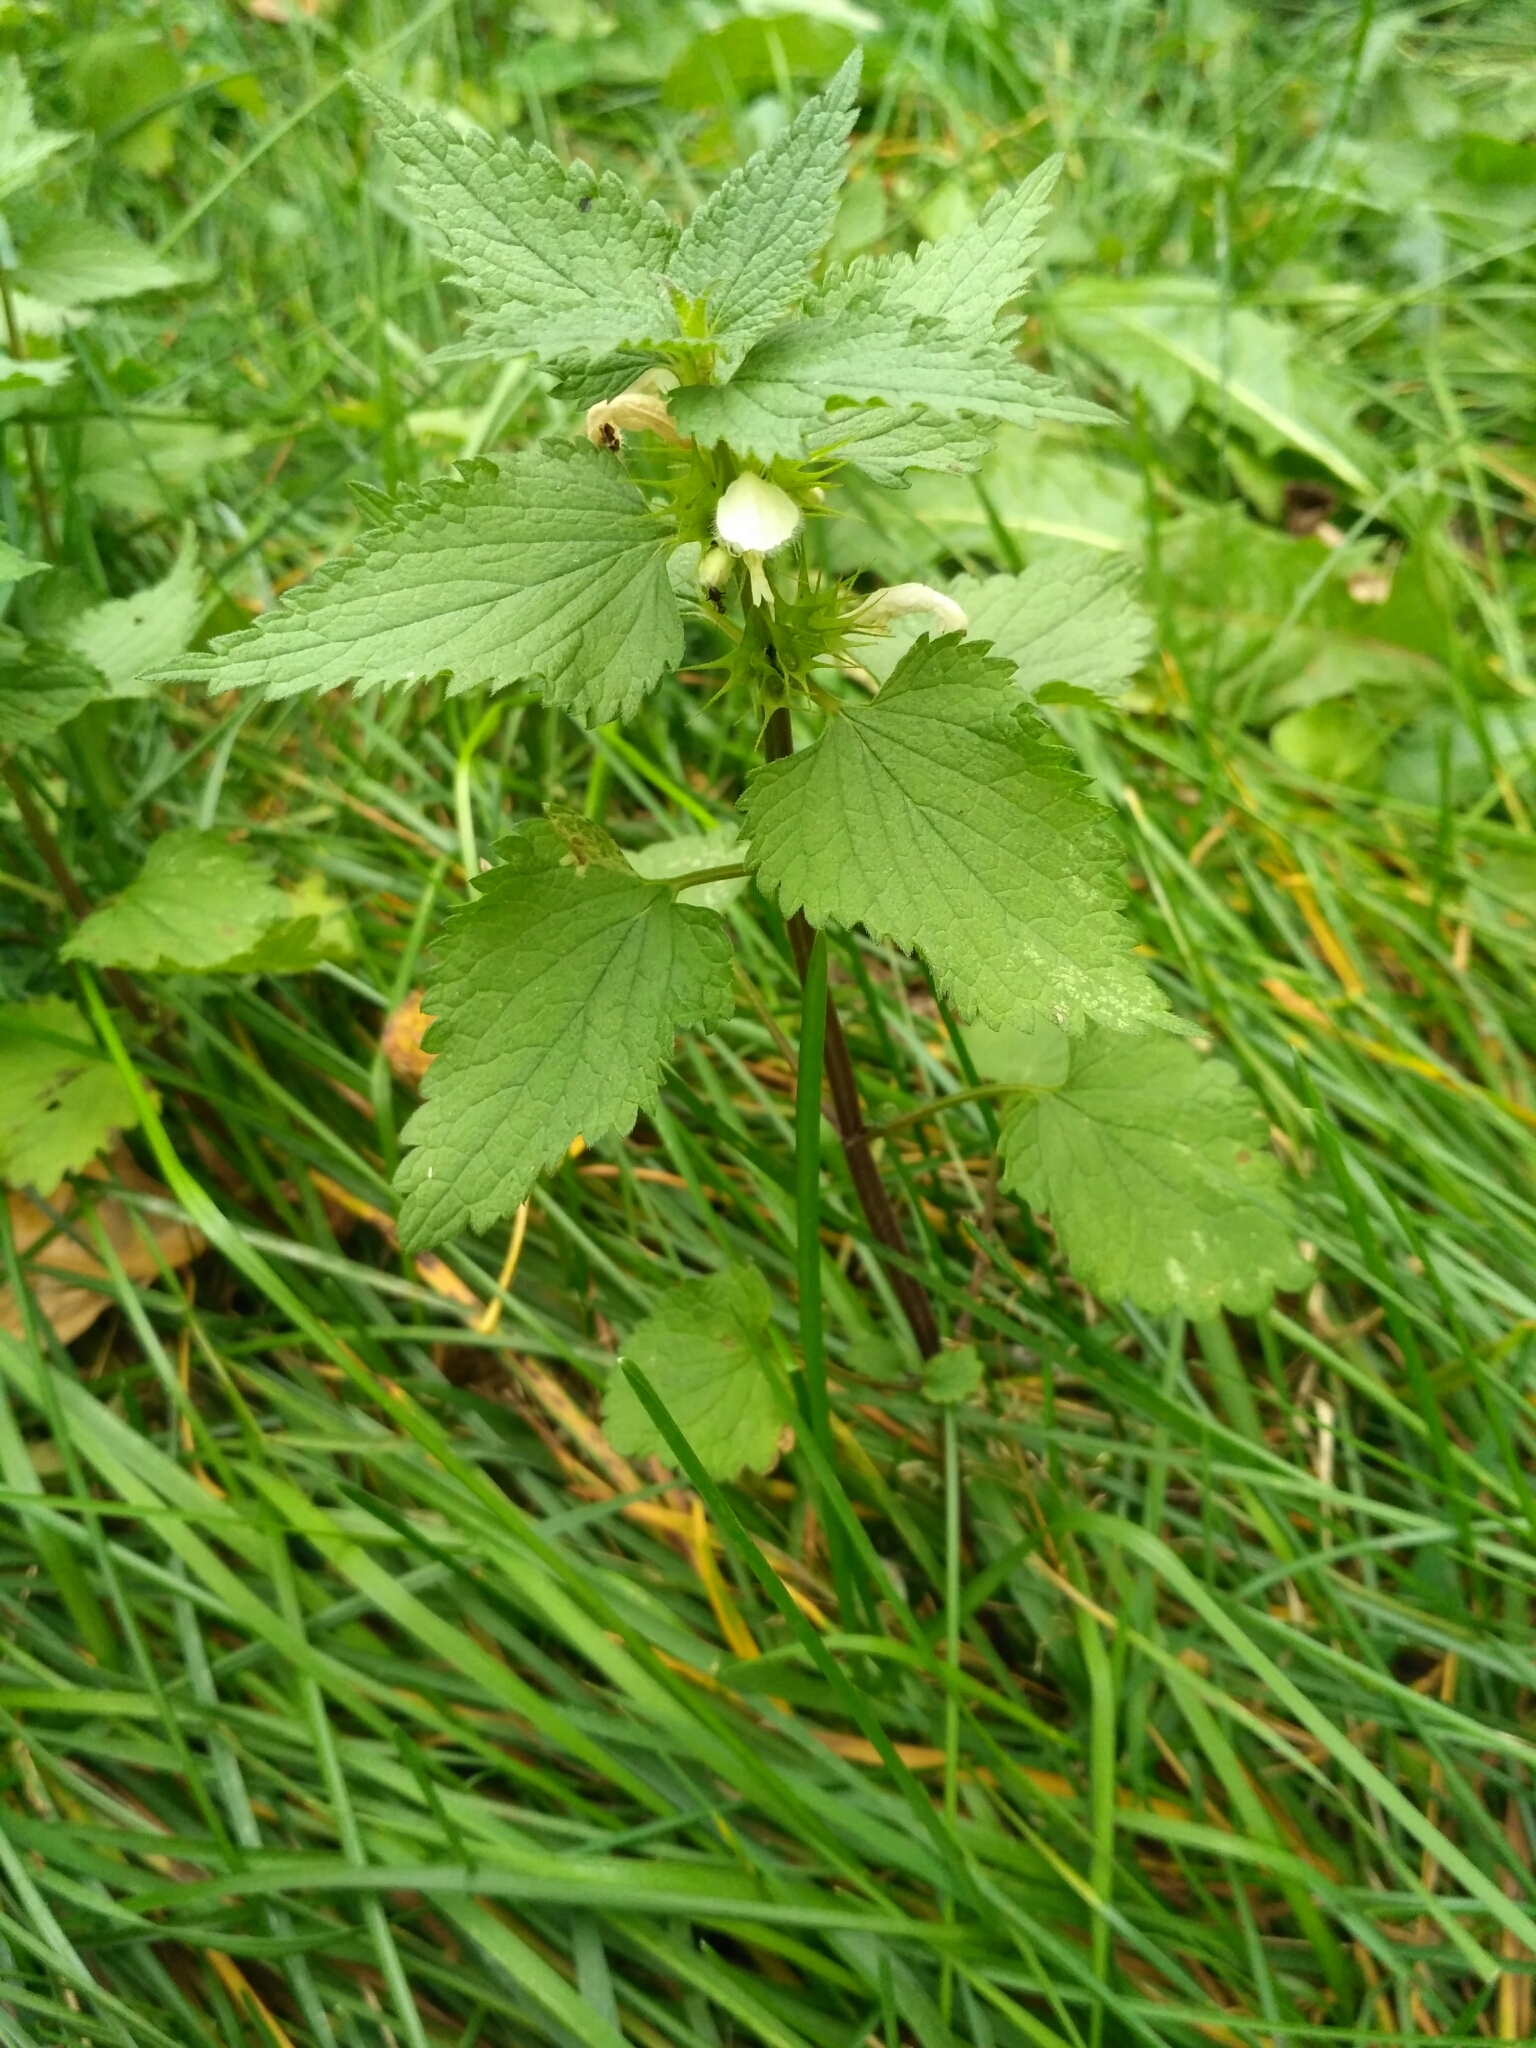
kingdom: Plantae
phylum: Tracheophyta
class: Magnoliopsida
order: Lamiales
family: Lamiaceae
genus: Lamium
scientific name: Lamium album
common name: White dead-nettle
